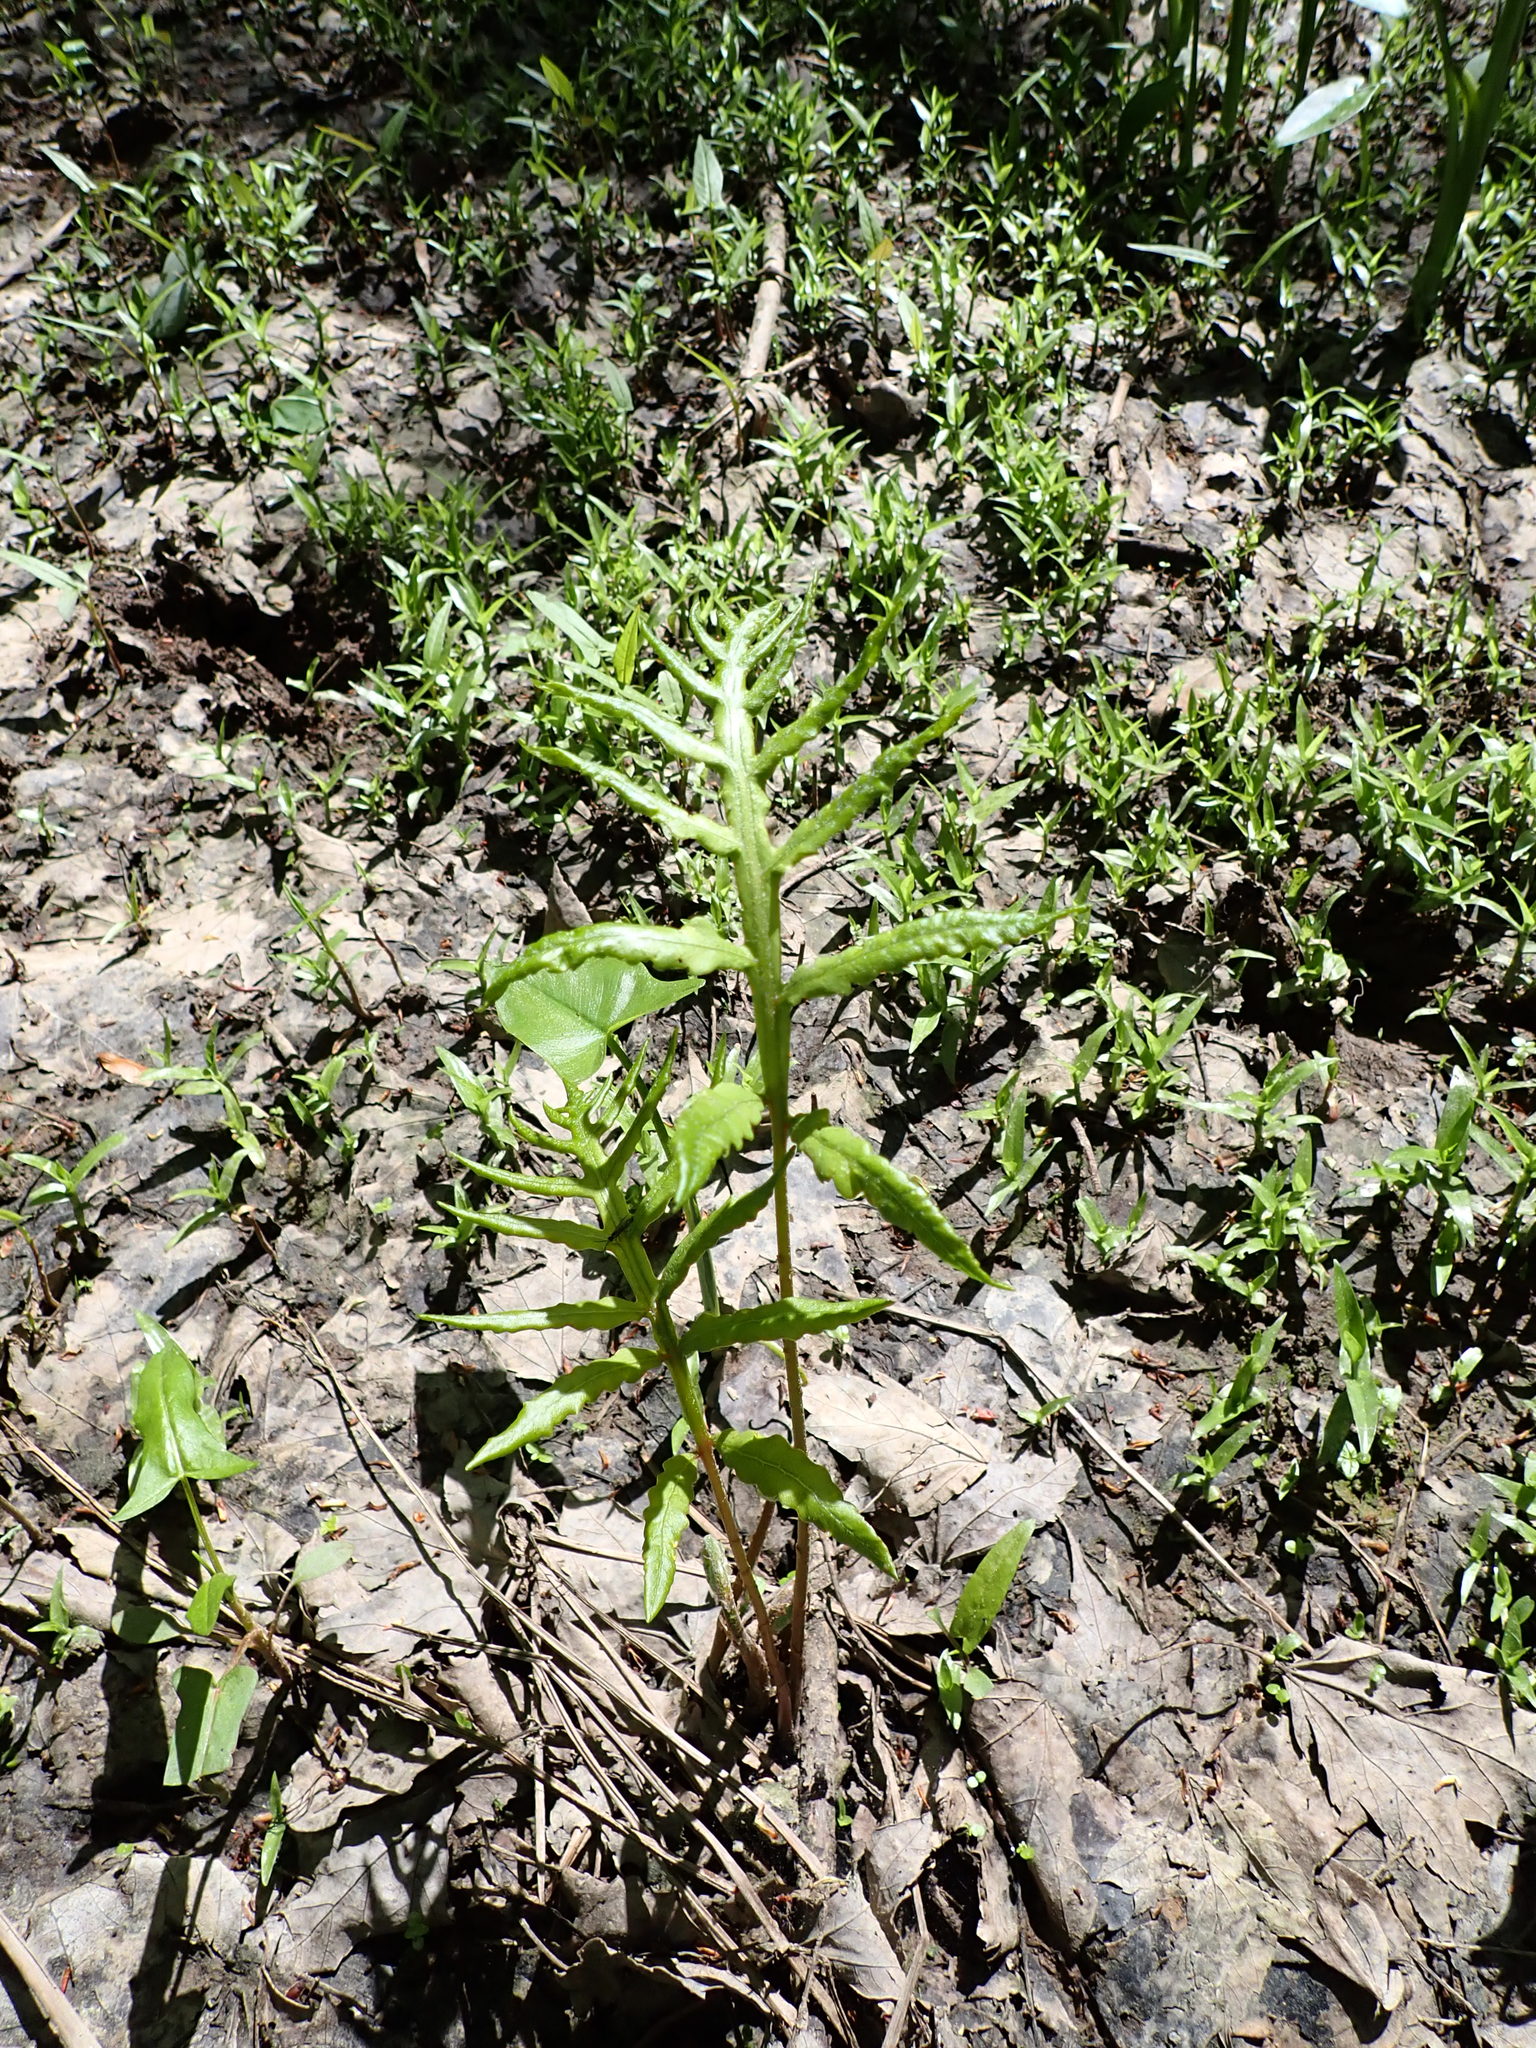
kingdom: Plantae
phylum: Tracheophyta
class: Polypodiopsida
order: Polypodiales
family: Onocleaceae
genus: Onoclea
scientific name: Onoclea sensibilis
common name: Sensitive fern
